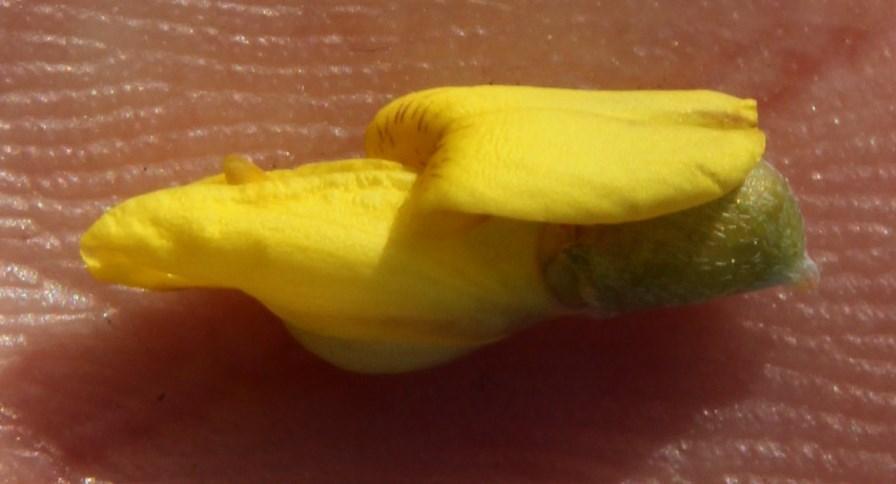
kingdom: Plantae
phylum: Tracheophyta
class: Magnoliopsida
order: Fabales
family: Fabaceae
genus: Wiborgia
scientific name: Wiborgia obcordata
